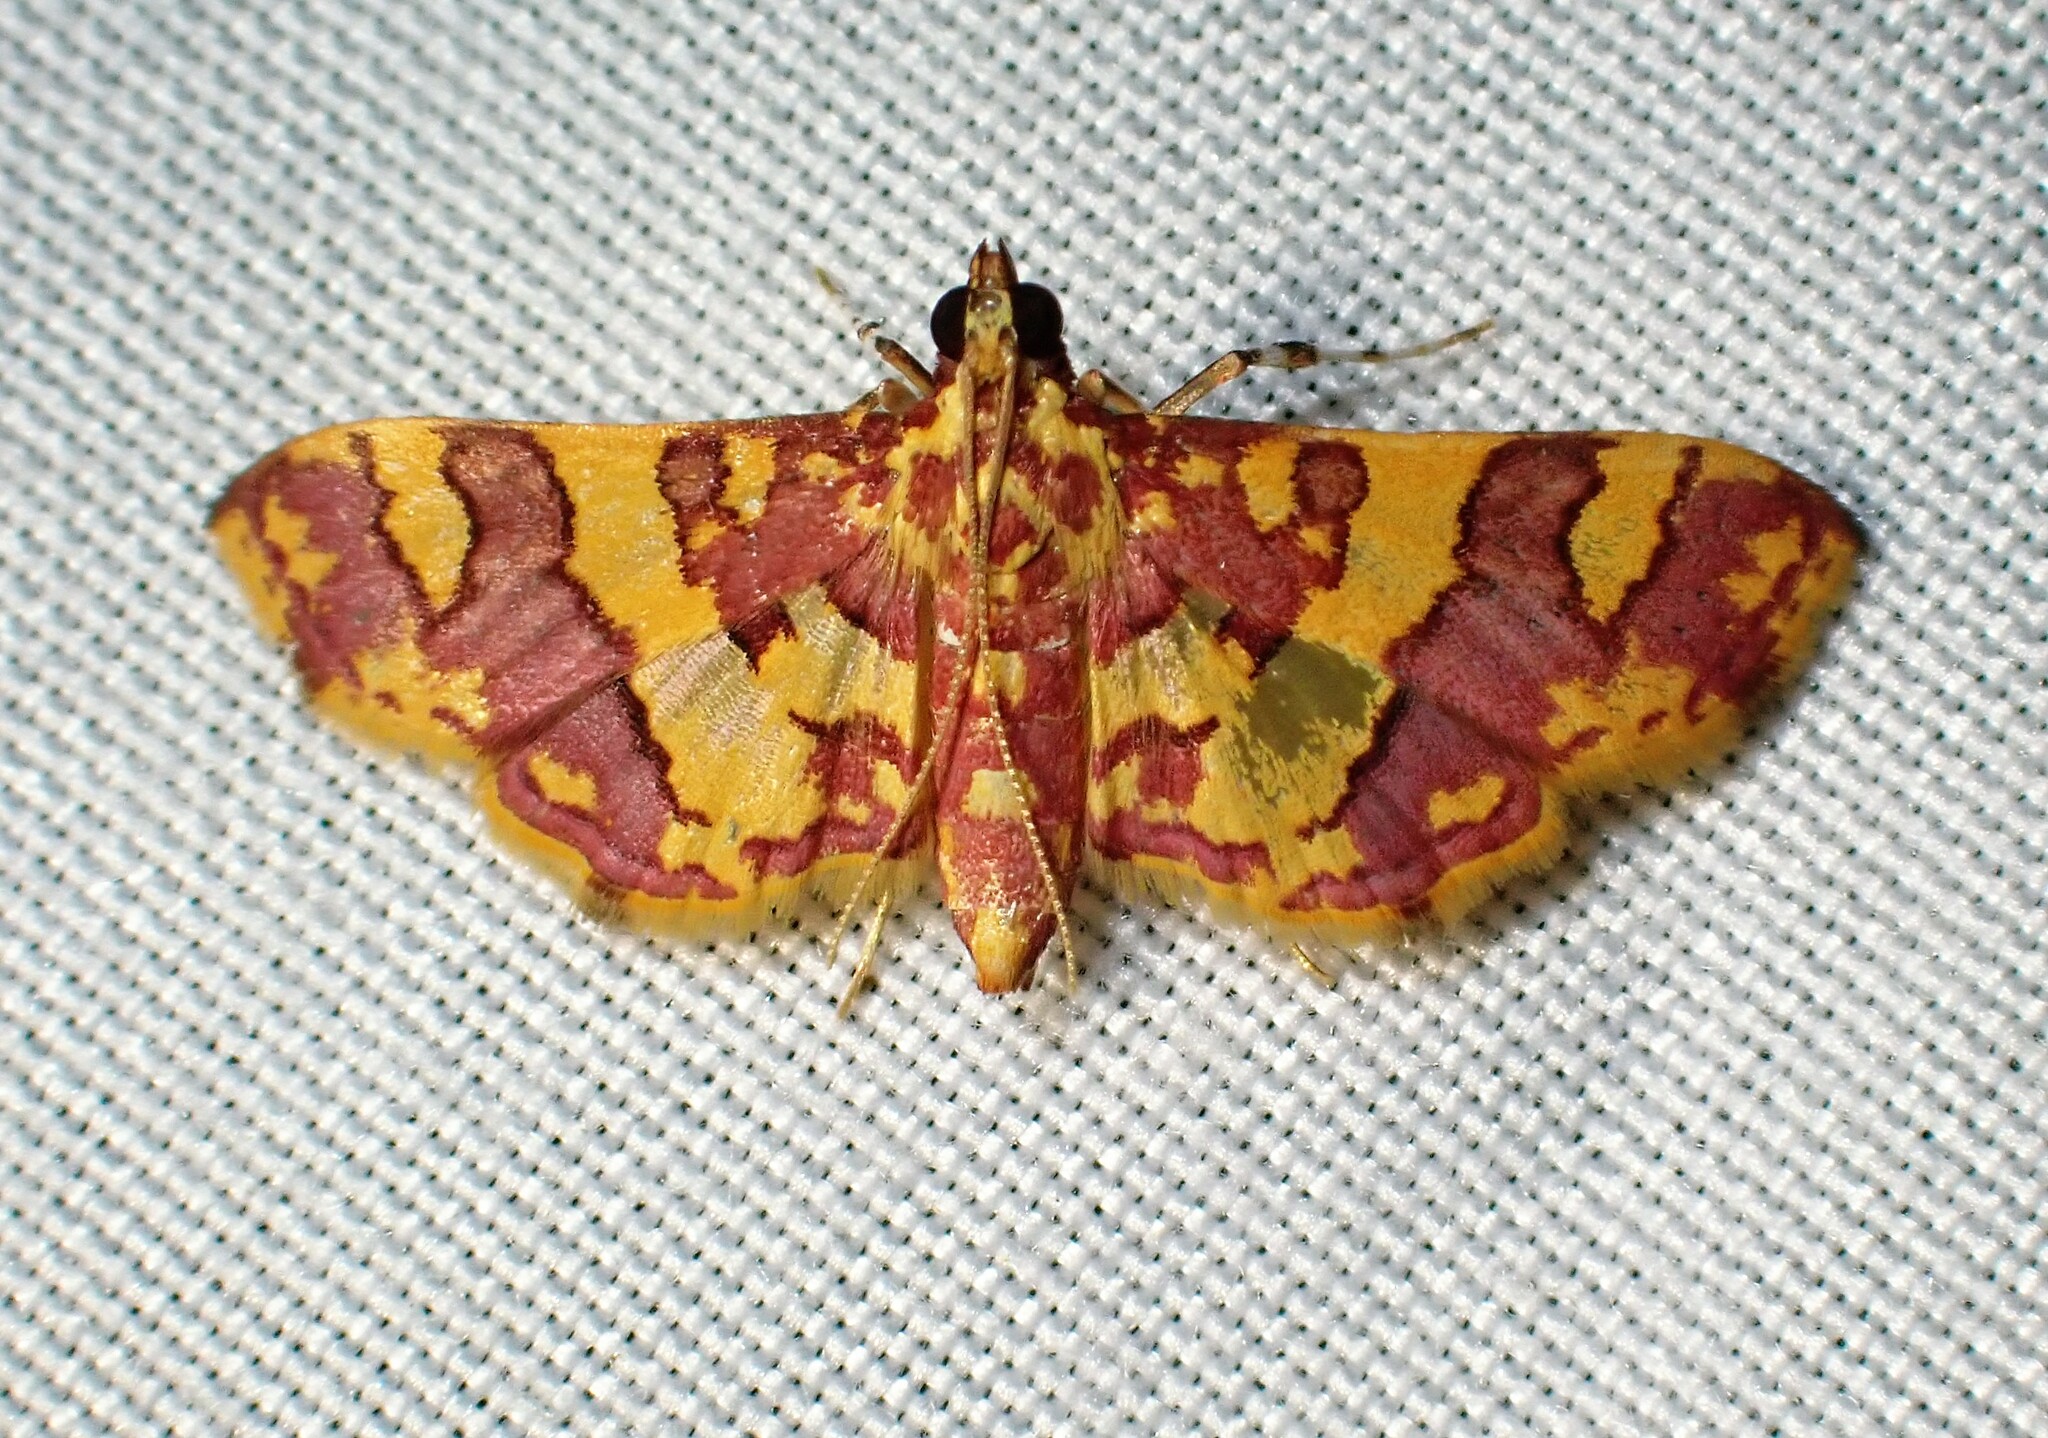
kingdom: Animalia
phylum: Arthropoda
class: Insecta
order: Lepidoptera
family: Crambidae
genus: Trithyris
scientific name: Trithyris Prenesta rubrocinctalis
